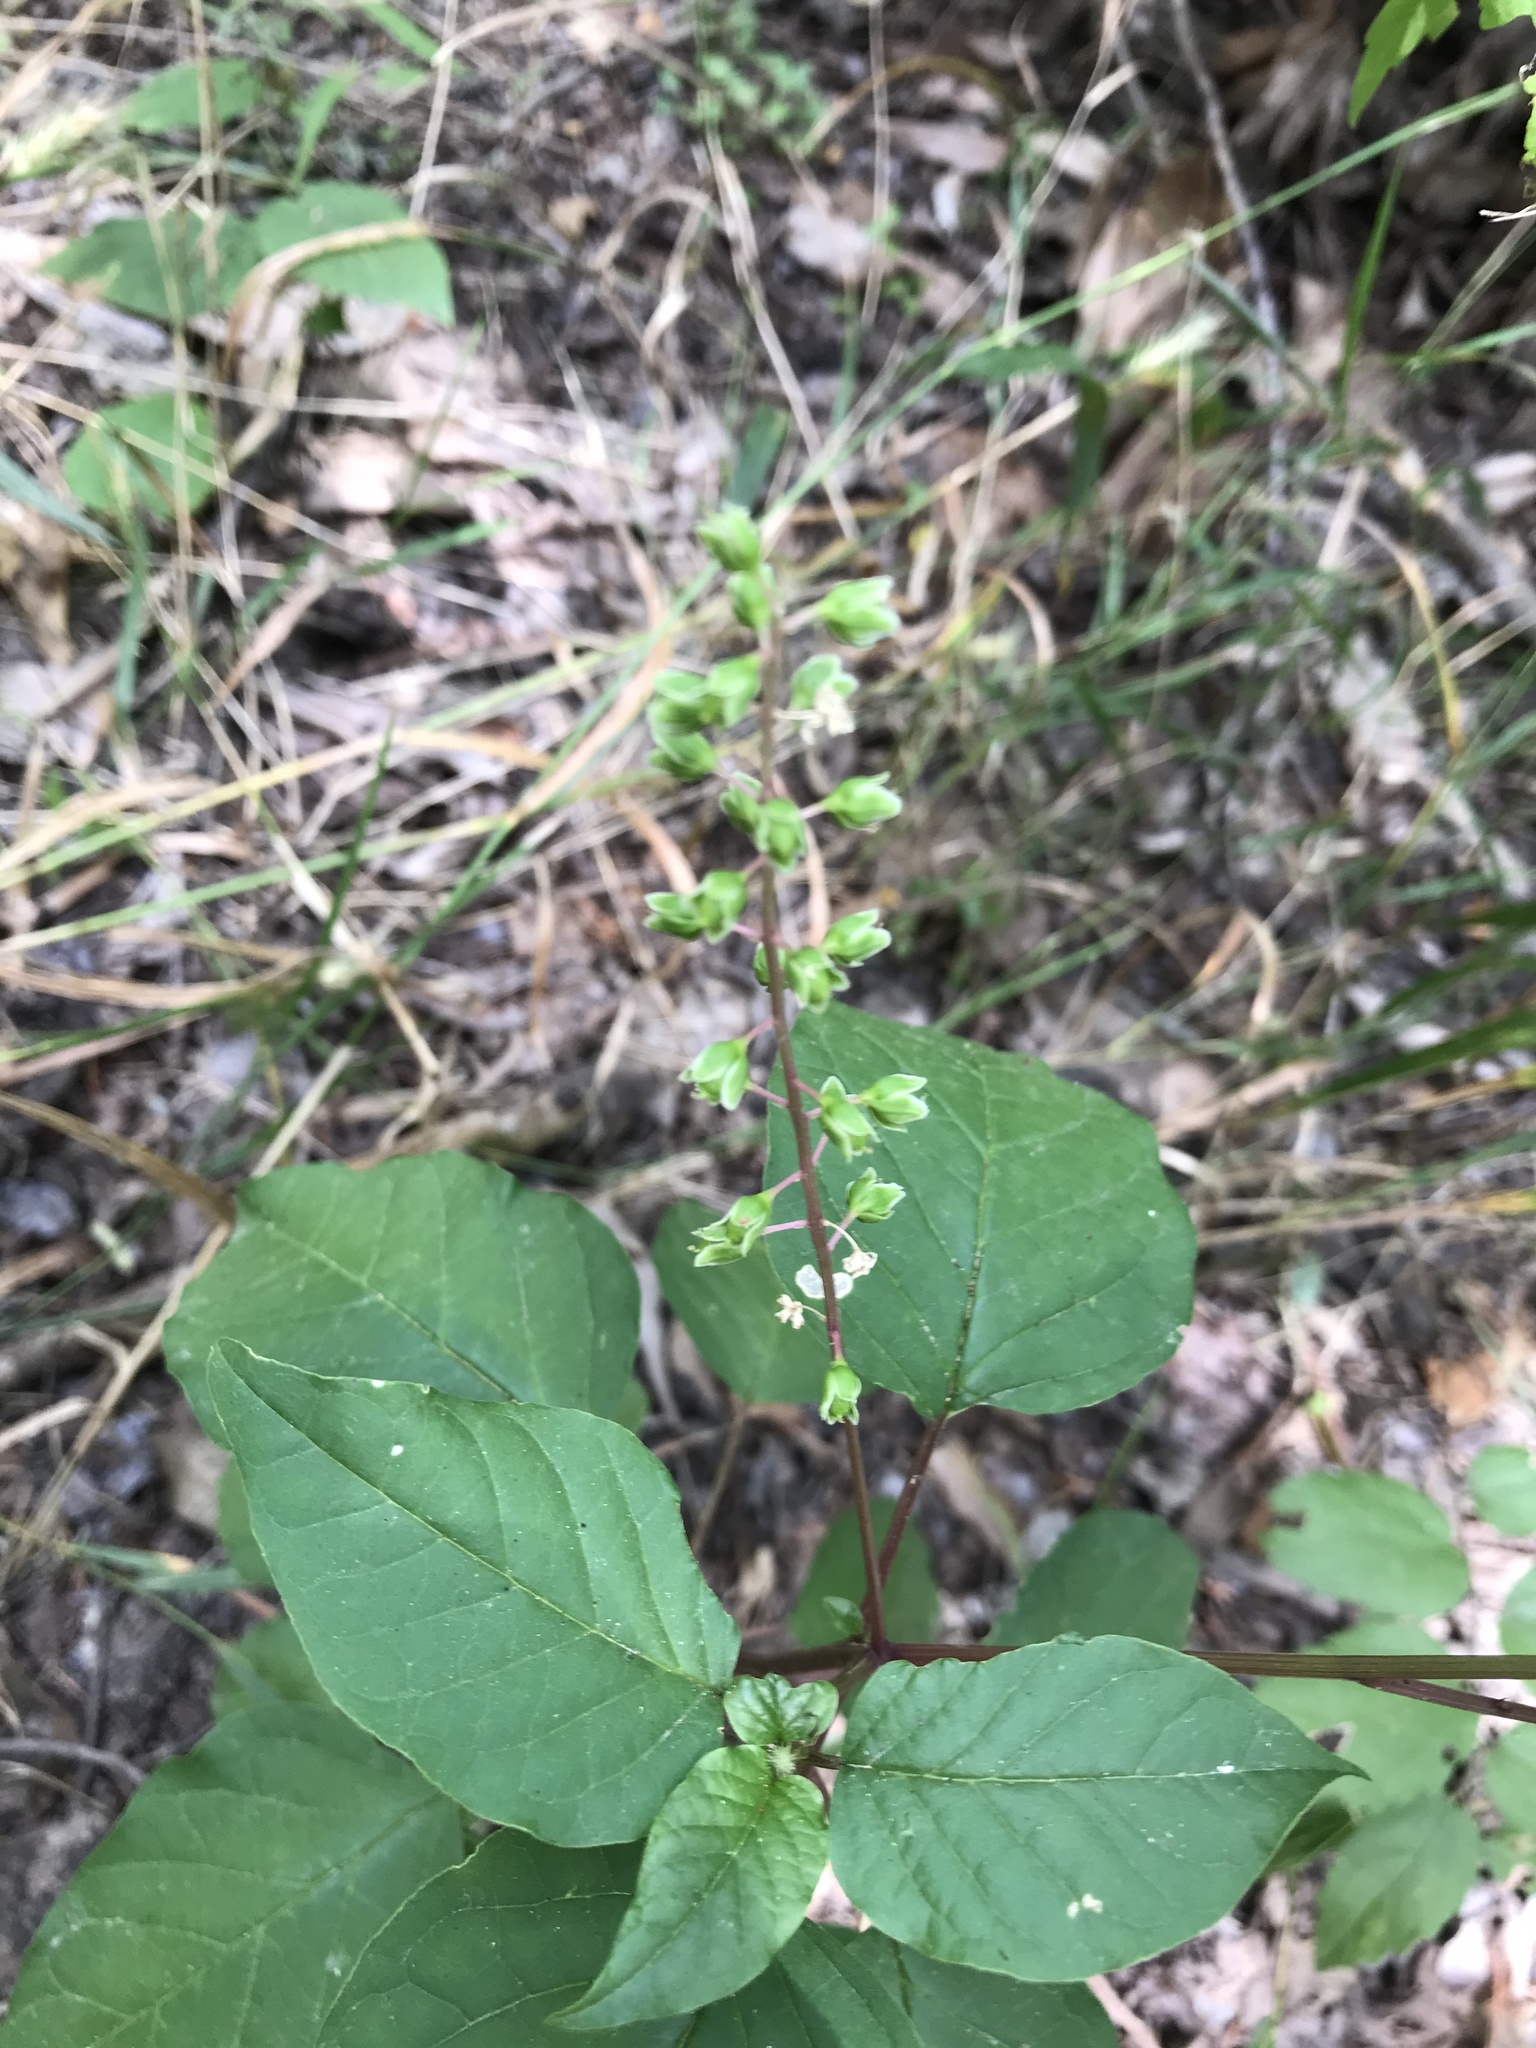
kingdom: Plantae
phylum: Tracheophyta
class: Magnoliopsida
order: Caryophyllales
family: Phytolaccaceae
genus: Rivina
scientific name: Rivina humilis
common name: Rougeplant
